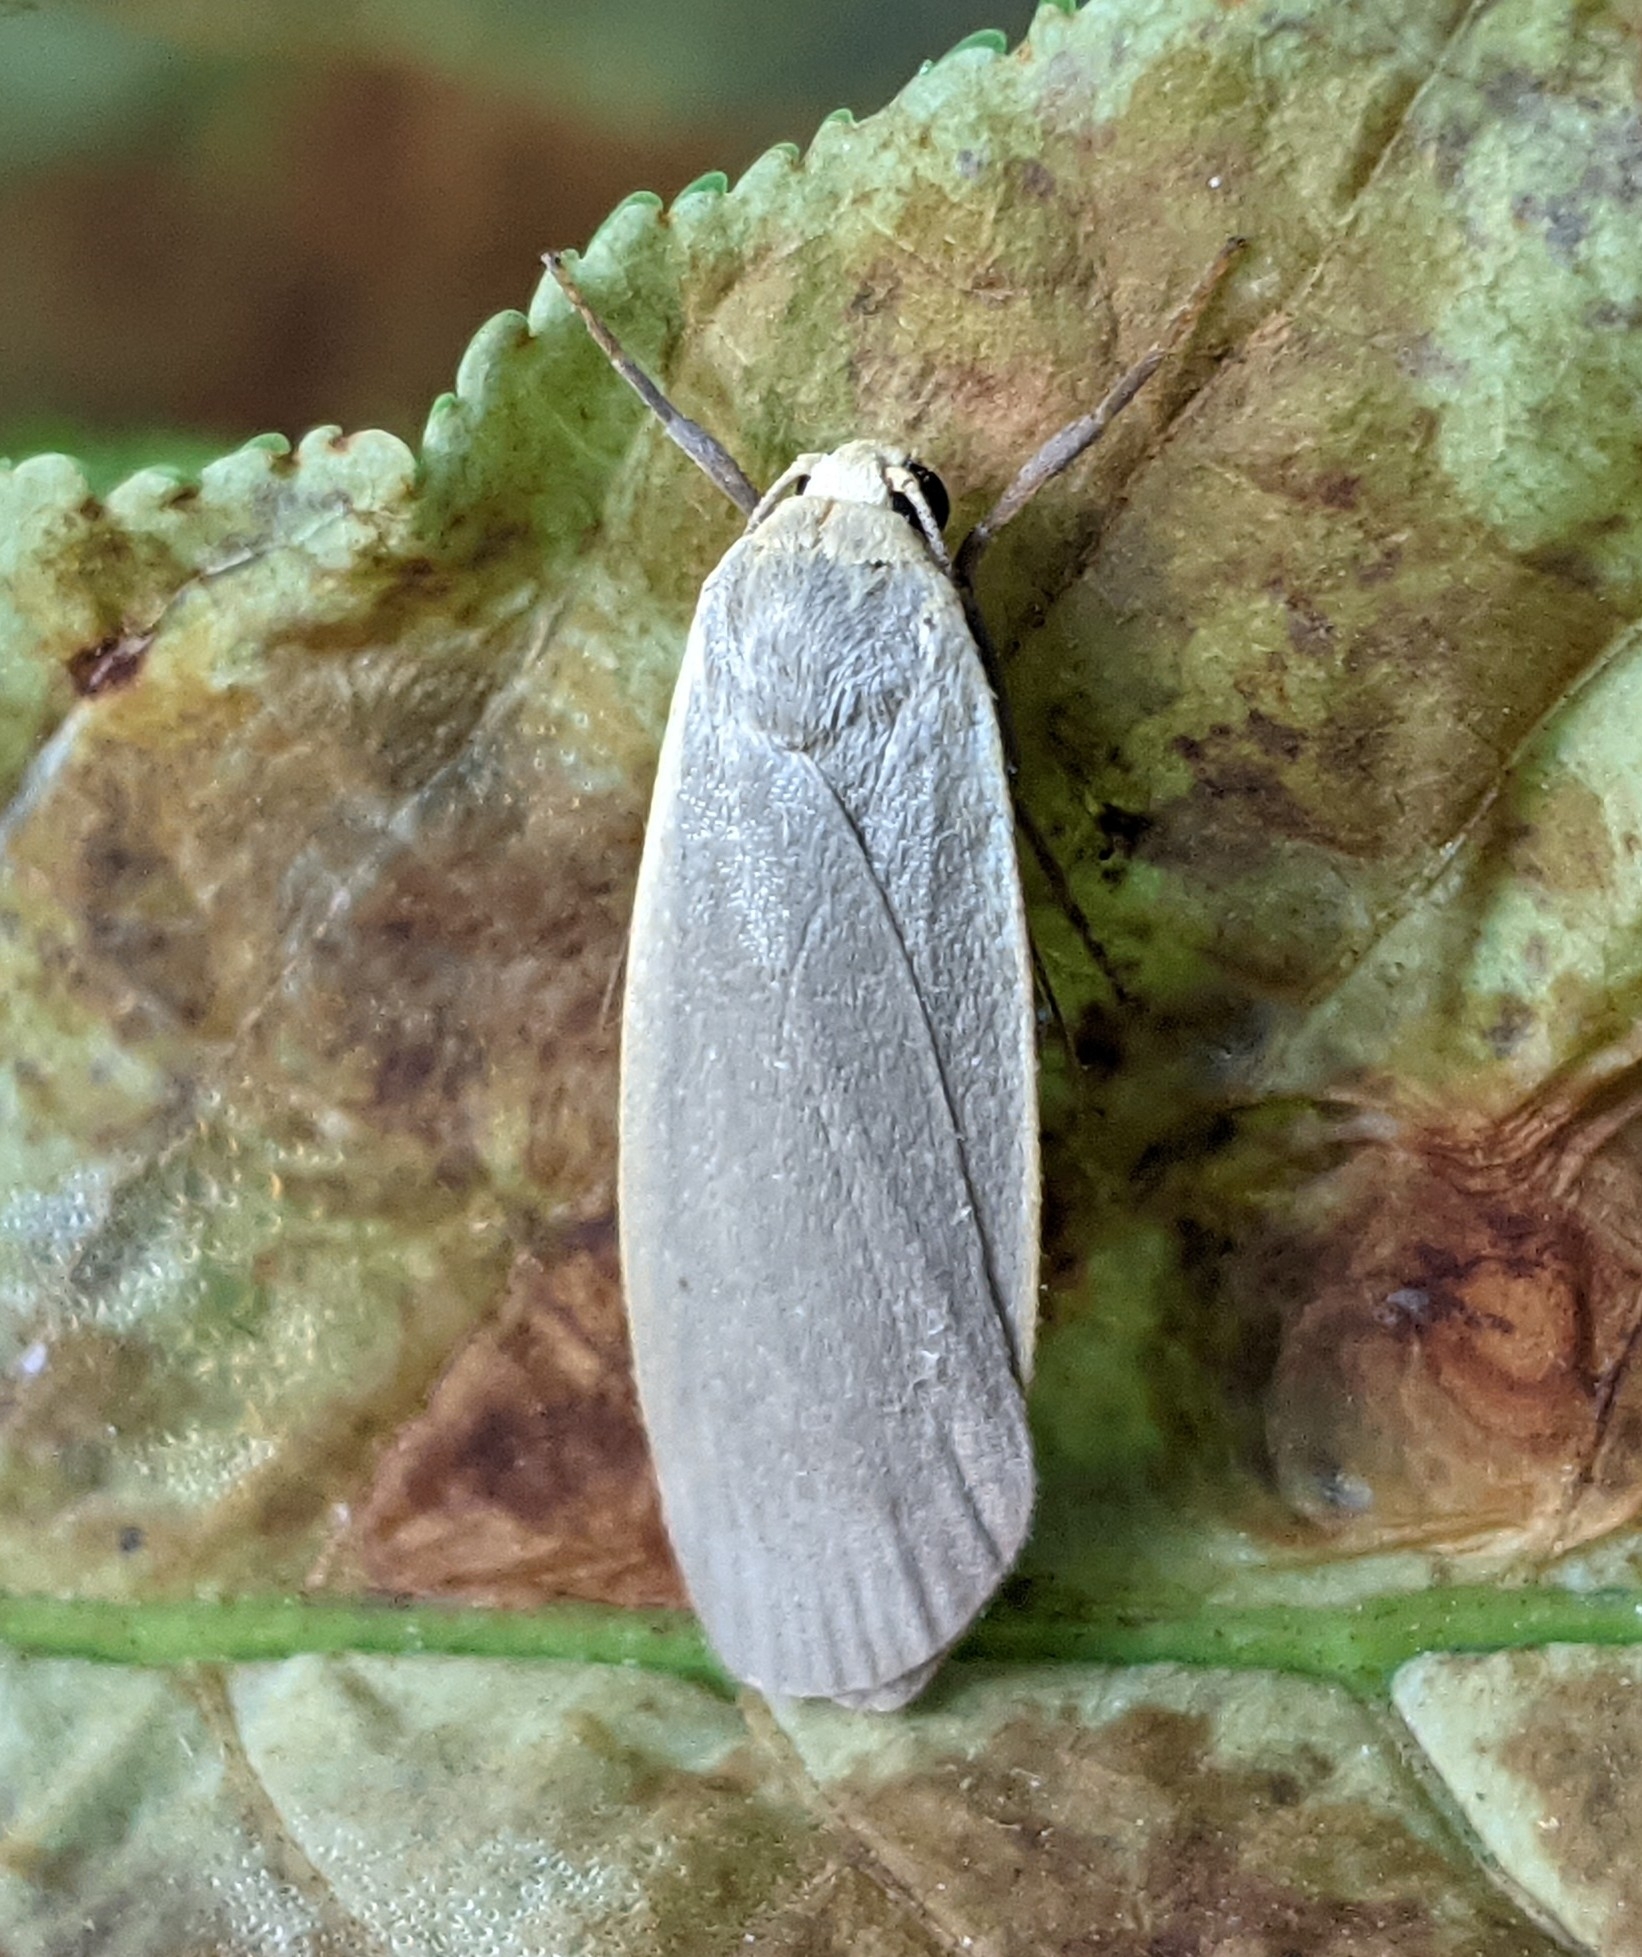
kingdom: Animalia
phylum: Arthropoda
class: Insecta
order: Lepidoptera
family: Erebidae
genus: Collita
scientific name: Collita griseola
